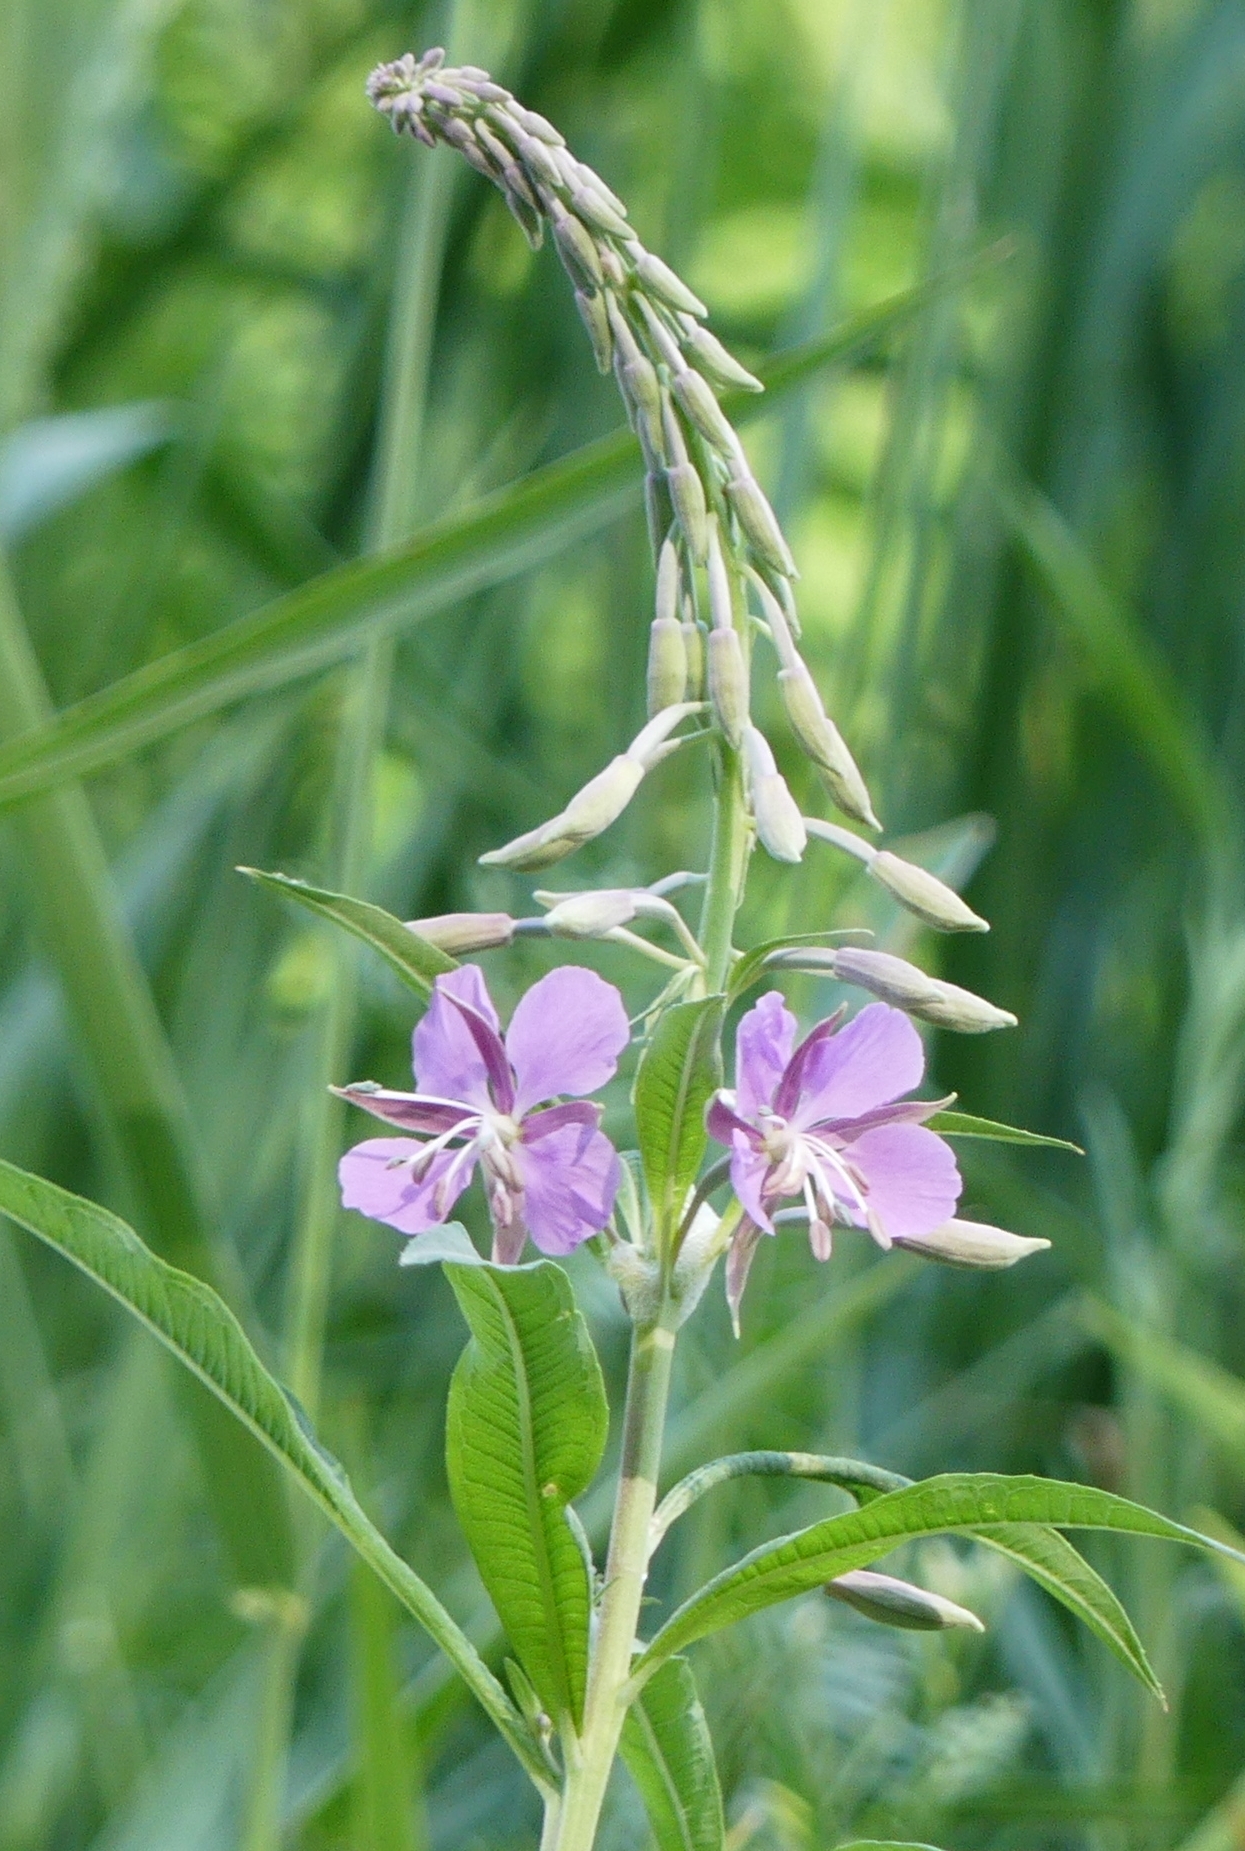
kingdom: Plantae
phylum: Tracheophyta
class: Magnoliopsida
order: Myrtales
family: Onagraceae
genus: Chamaenerion
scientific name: Chamaenerion angustifolium
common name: Fireweed
